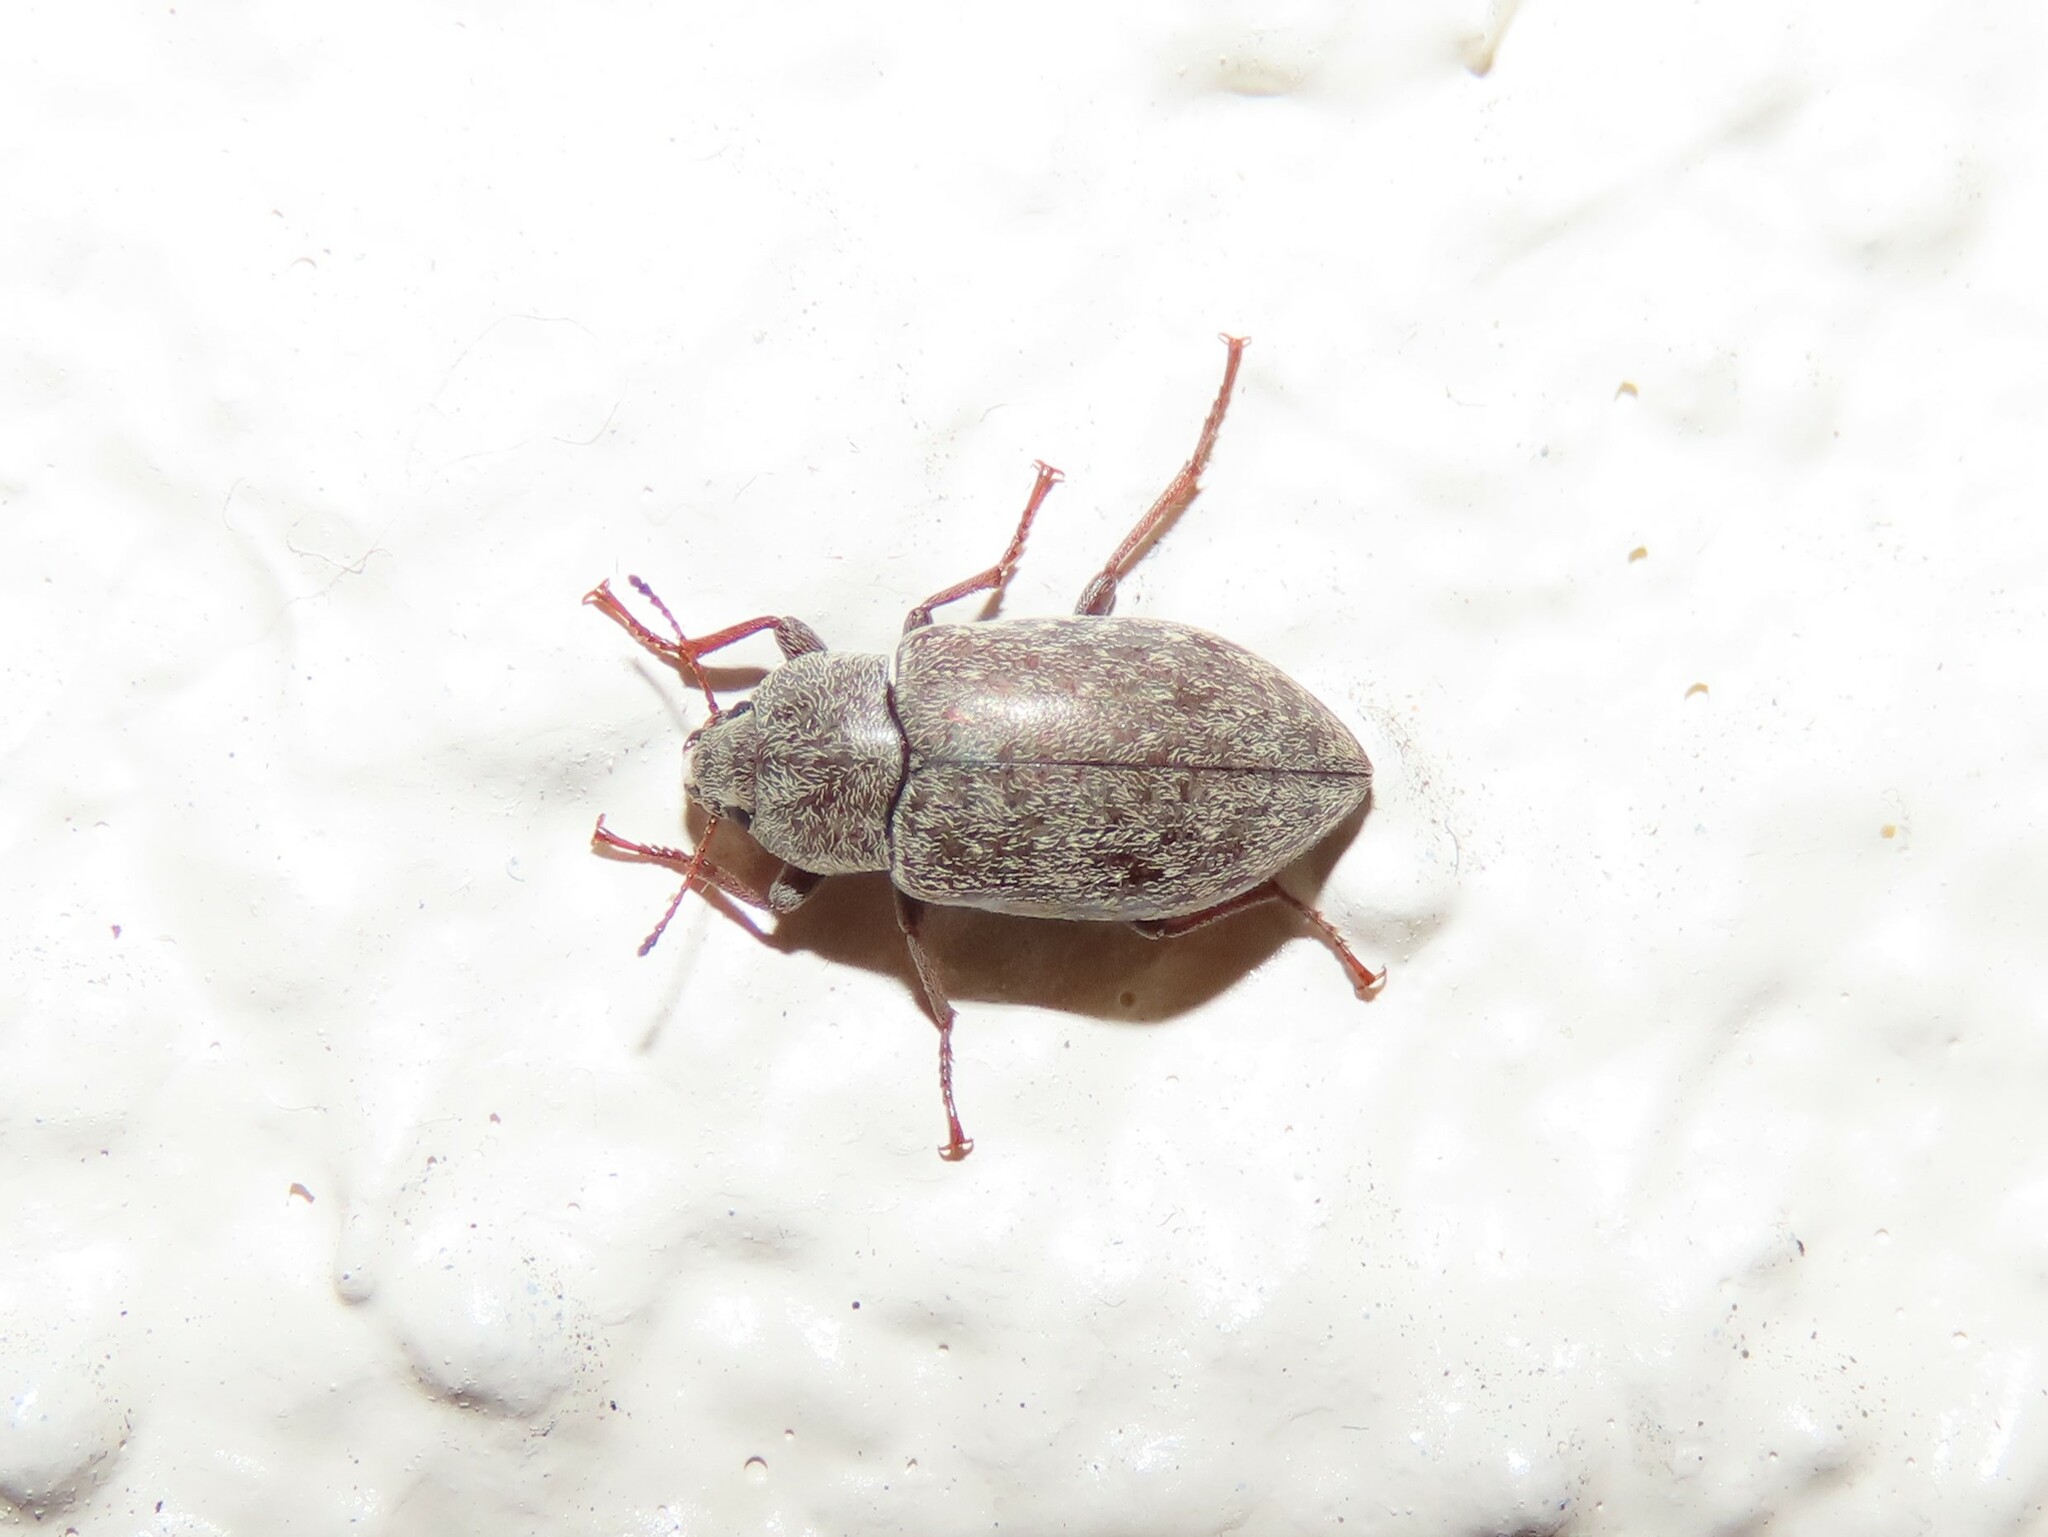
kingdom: Animalia
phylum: Arthropoda
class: Insecta
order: Coleoptera
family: Tenebrionidae
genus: Epitragodes
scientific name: Epitragodes tomentosus
